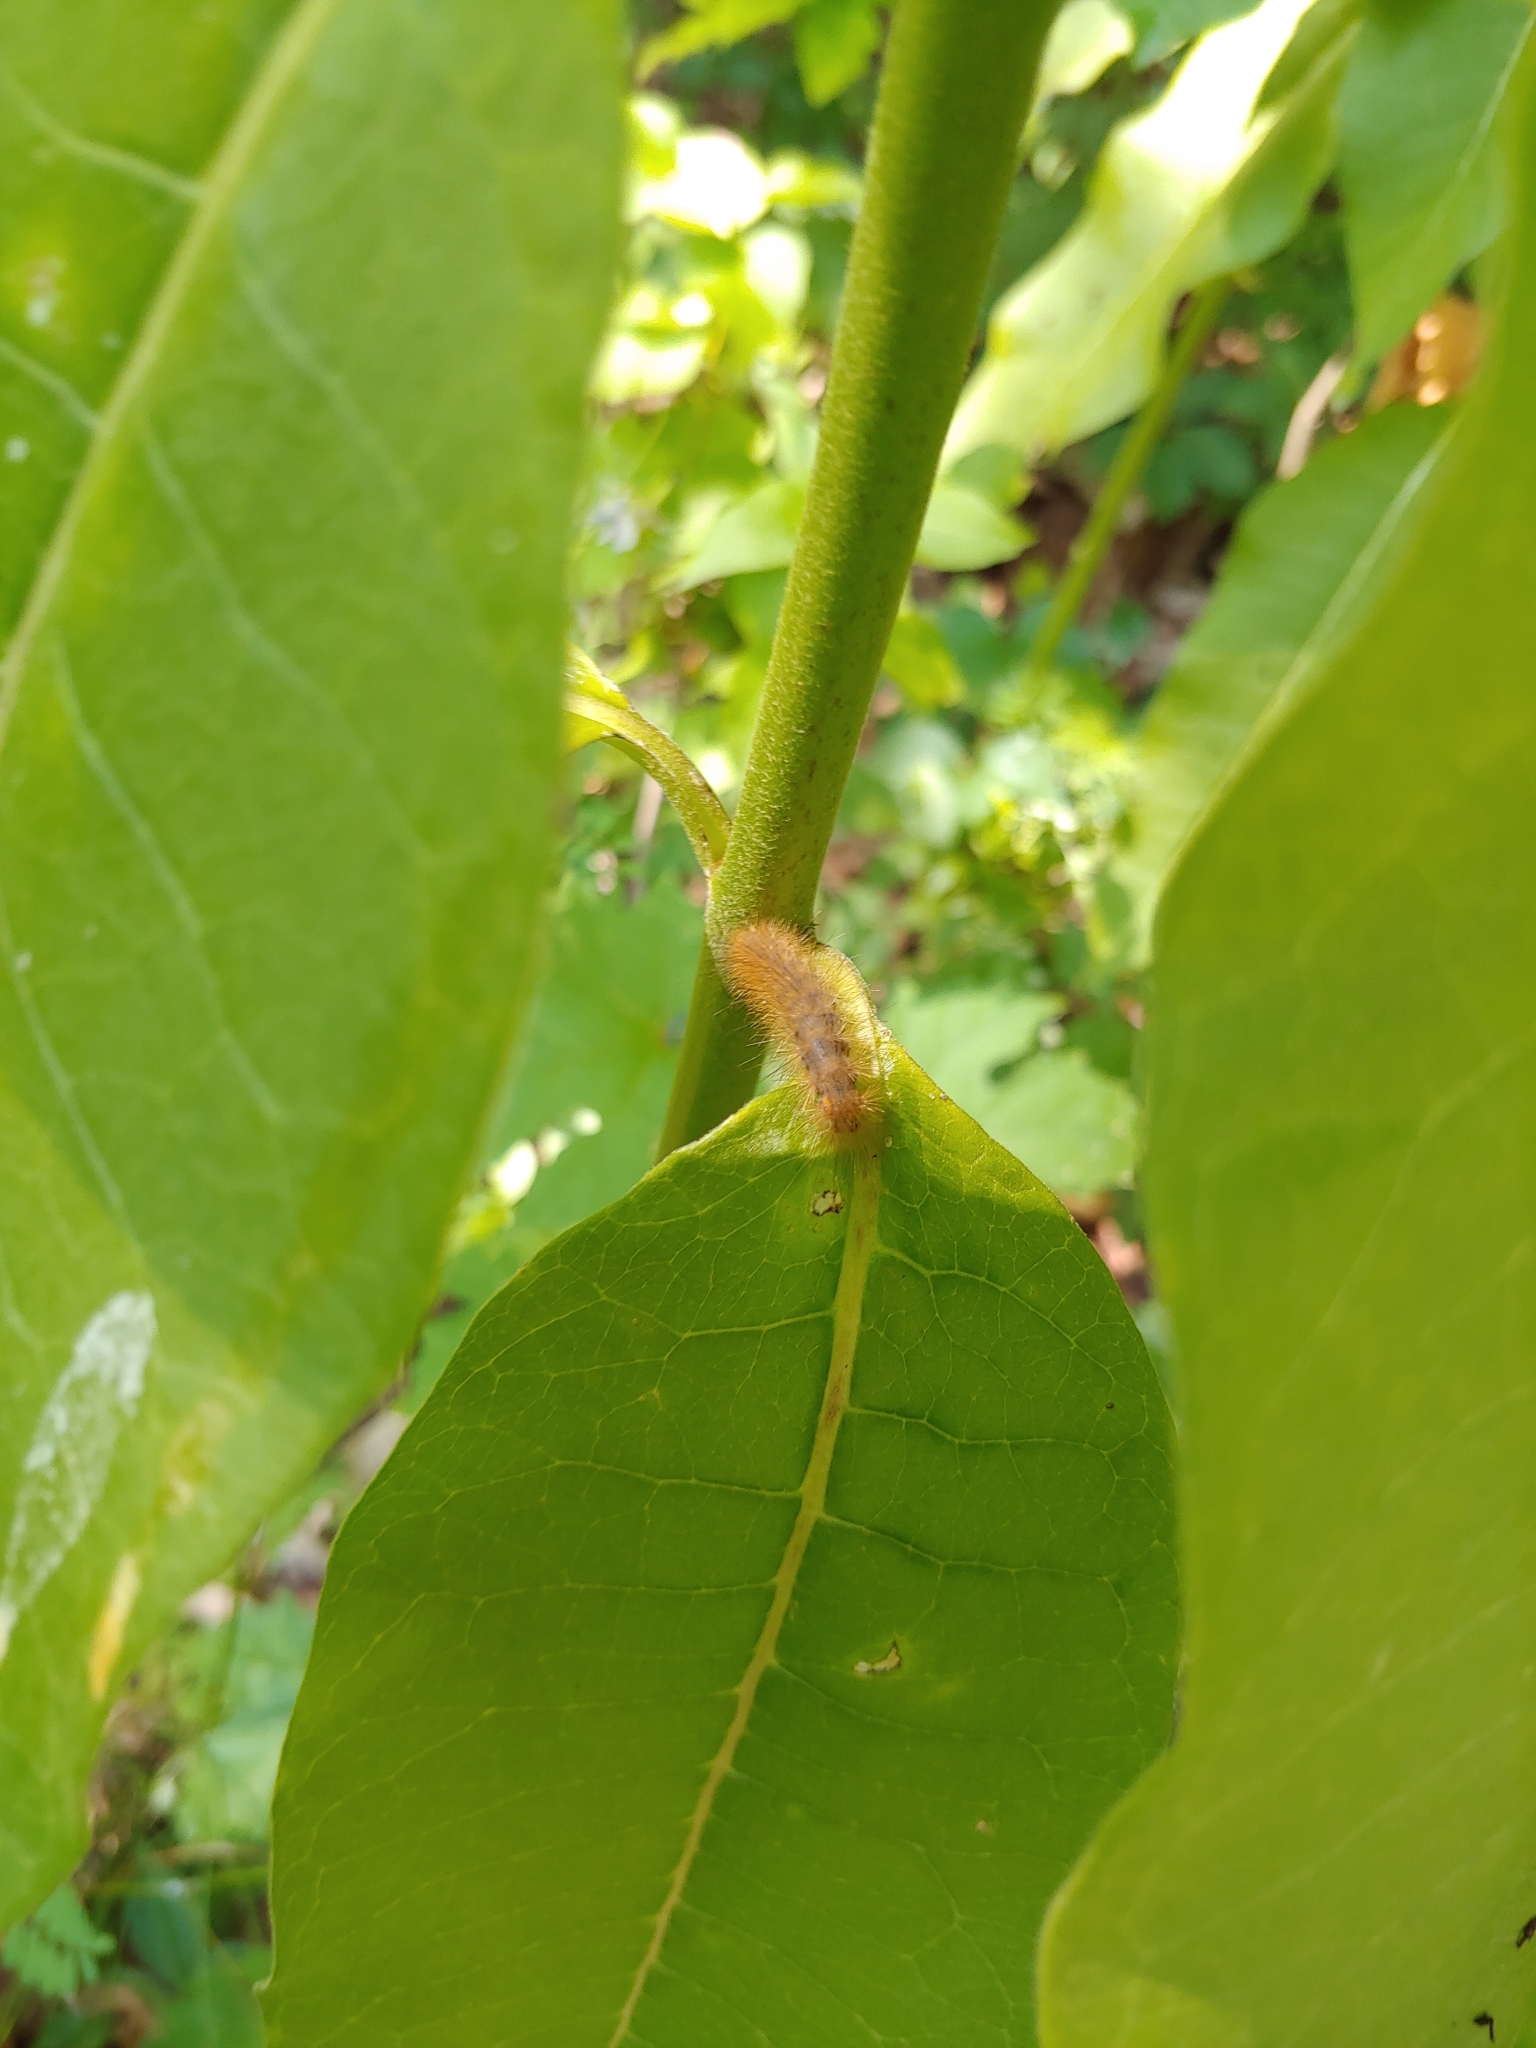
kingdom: Animalia
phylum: Arthropoda
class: Insecta
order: Lepidoptera
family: Erebidae
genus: Spilosoma
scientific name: Spilosoma virginica
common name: Virginia tiger moth
